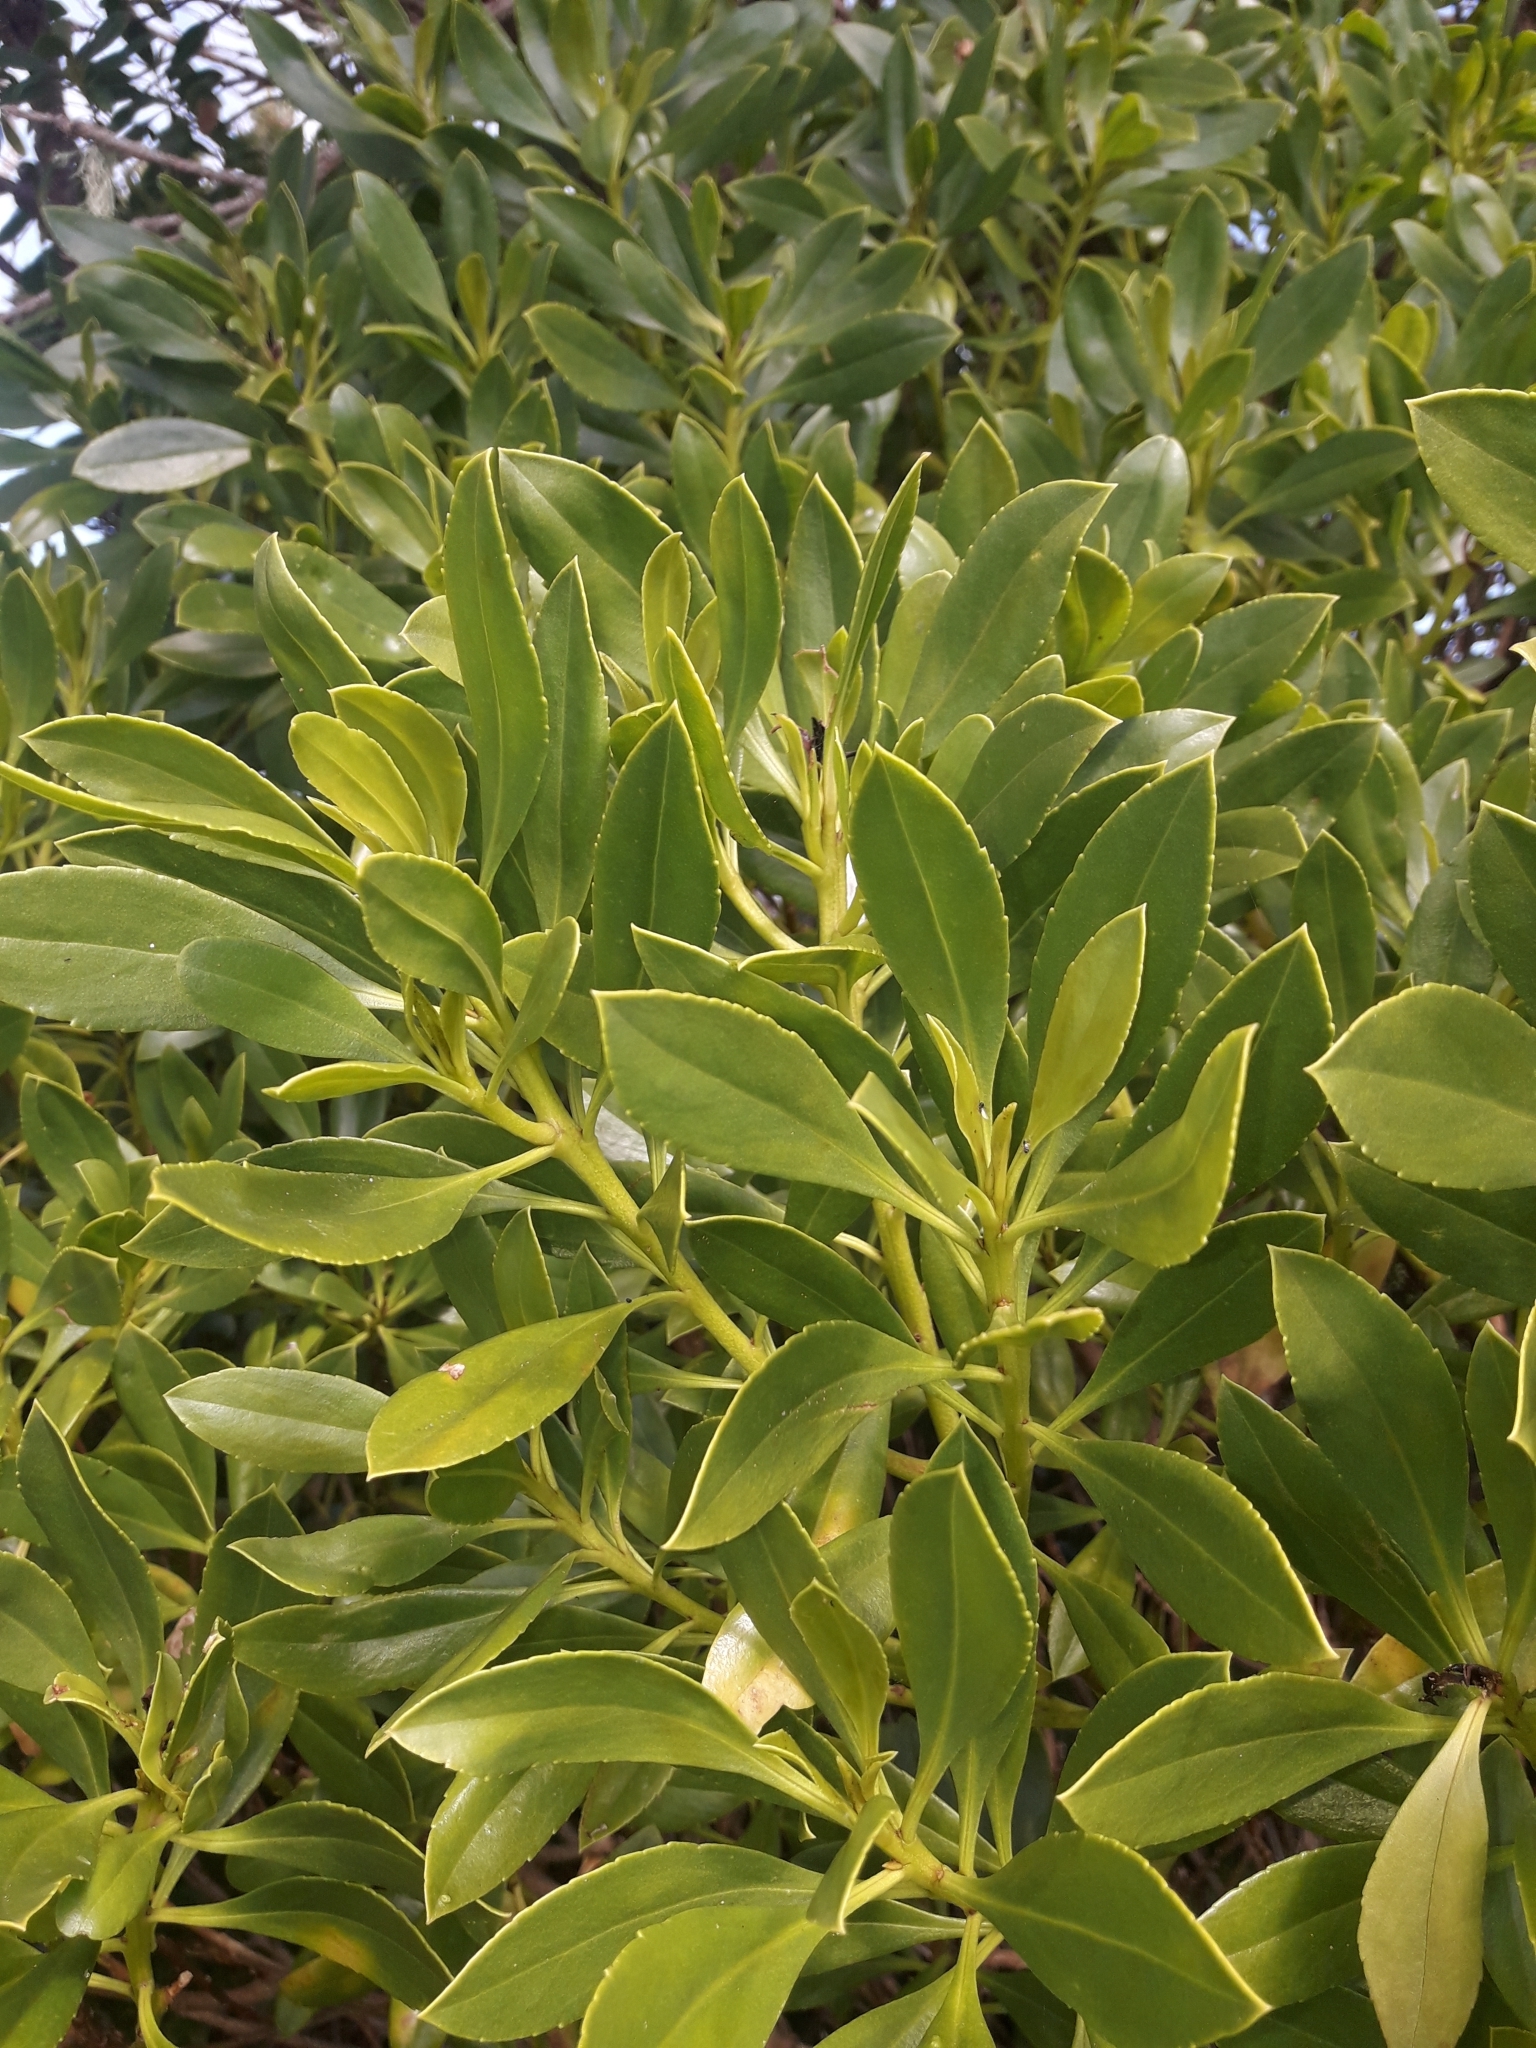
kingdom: Plantae
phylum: Tracheophyta
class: Magnoliopsida
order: Lamiales
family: Scrophulariaceae
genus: Myoporum
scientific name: Myoporum insulare
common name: Common boobialla
